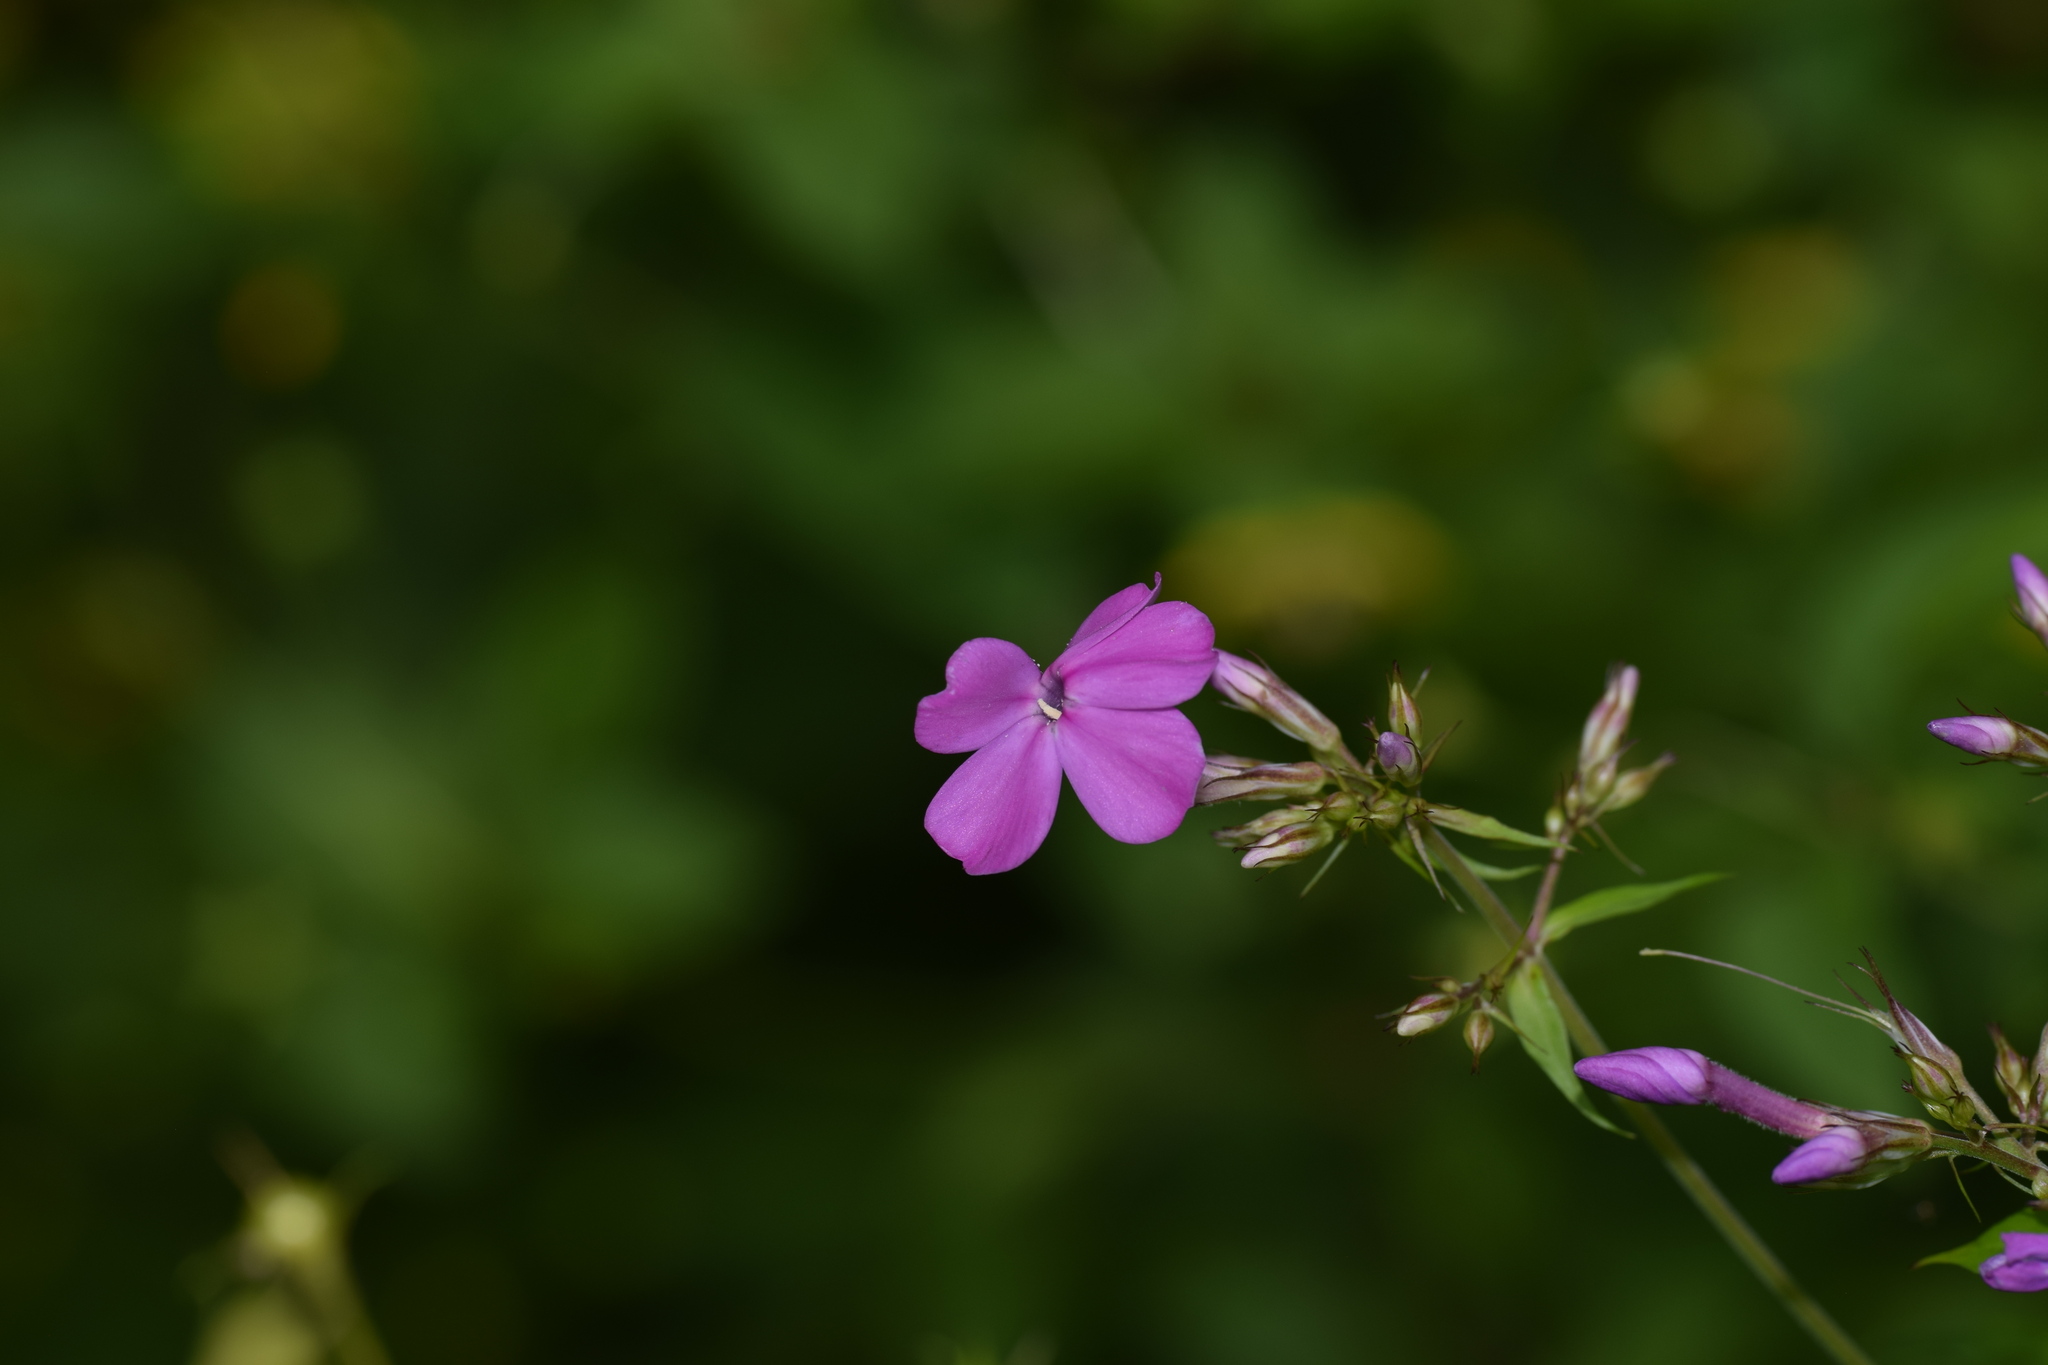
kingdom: Plantae
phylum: Tracheophyta
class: Magnoliopsida
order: Ericales
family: Polemoniaceae
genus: Phlox
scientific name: Phlox paniculata
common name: Fall phlox
